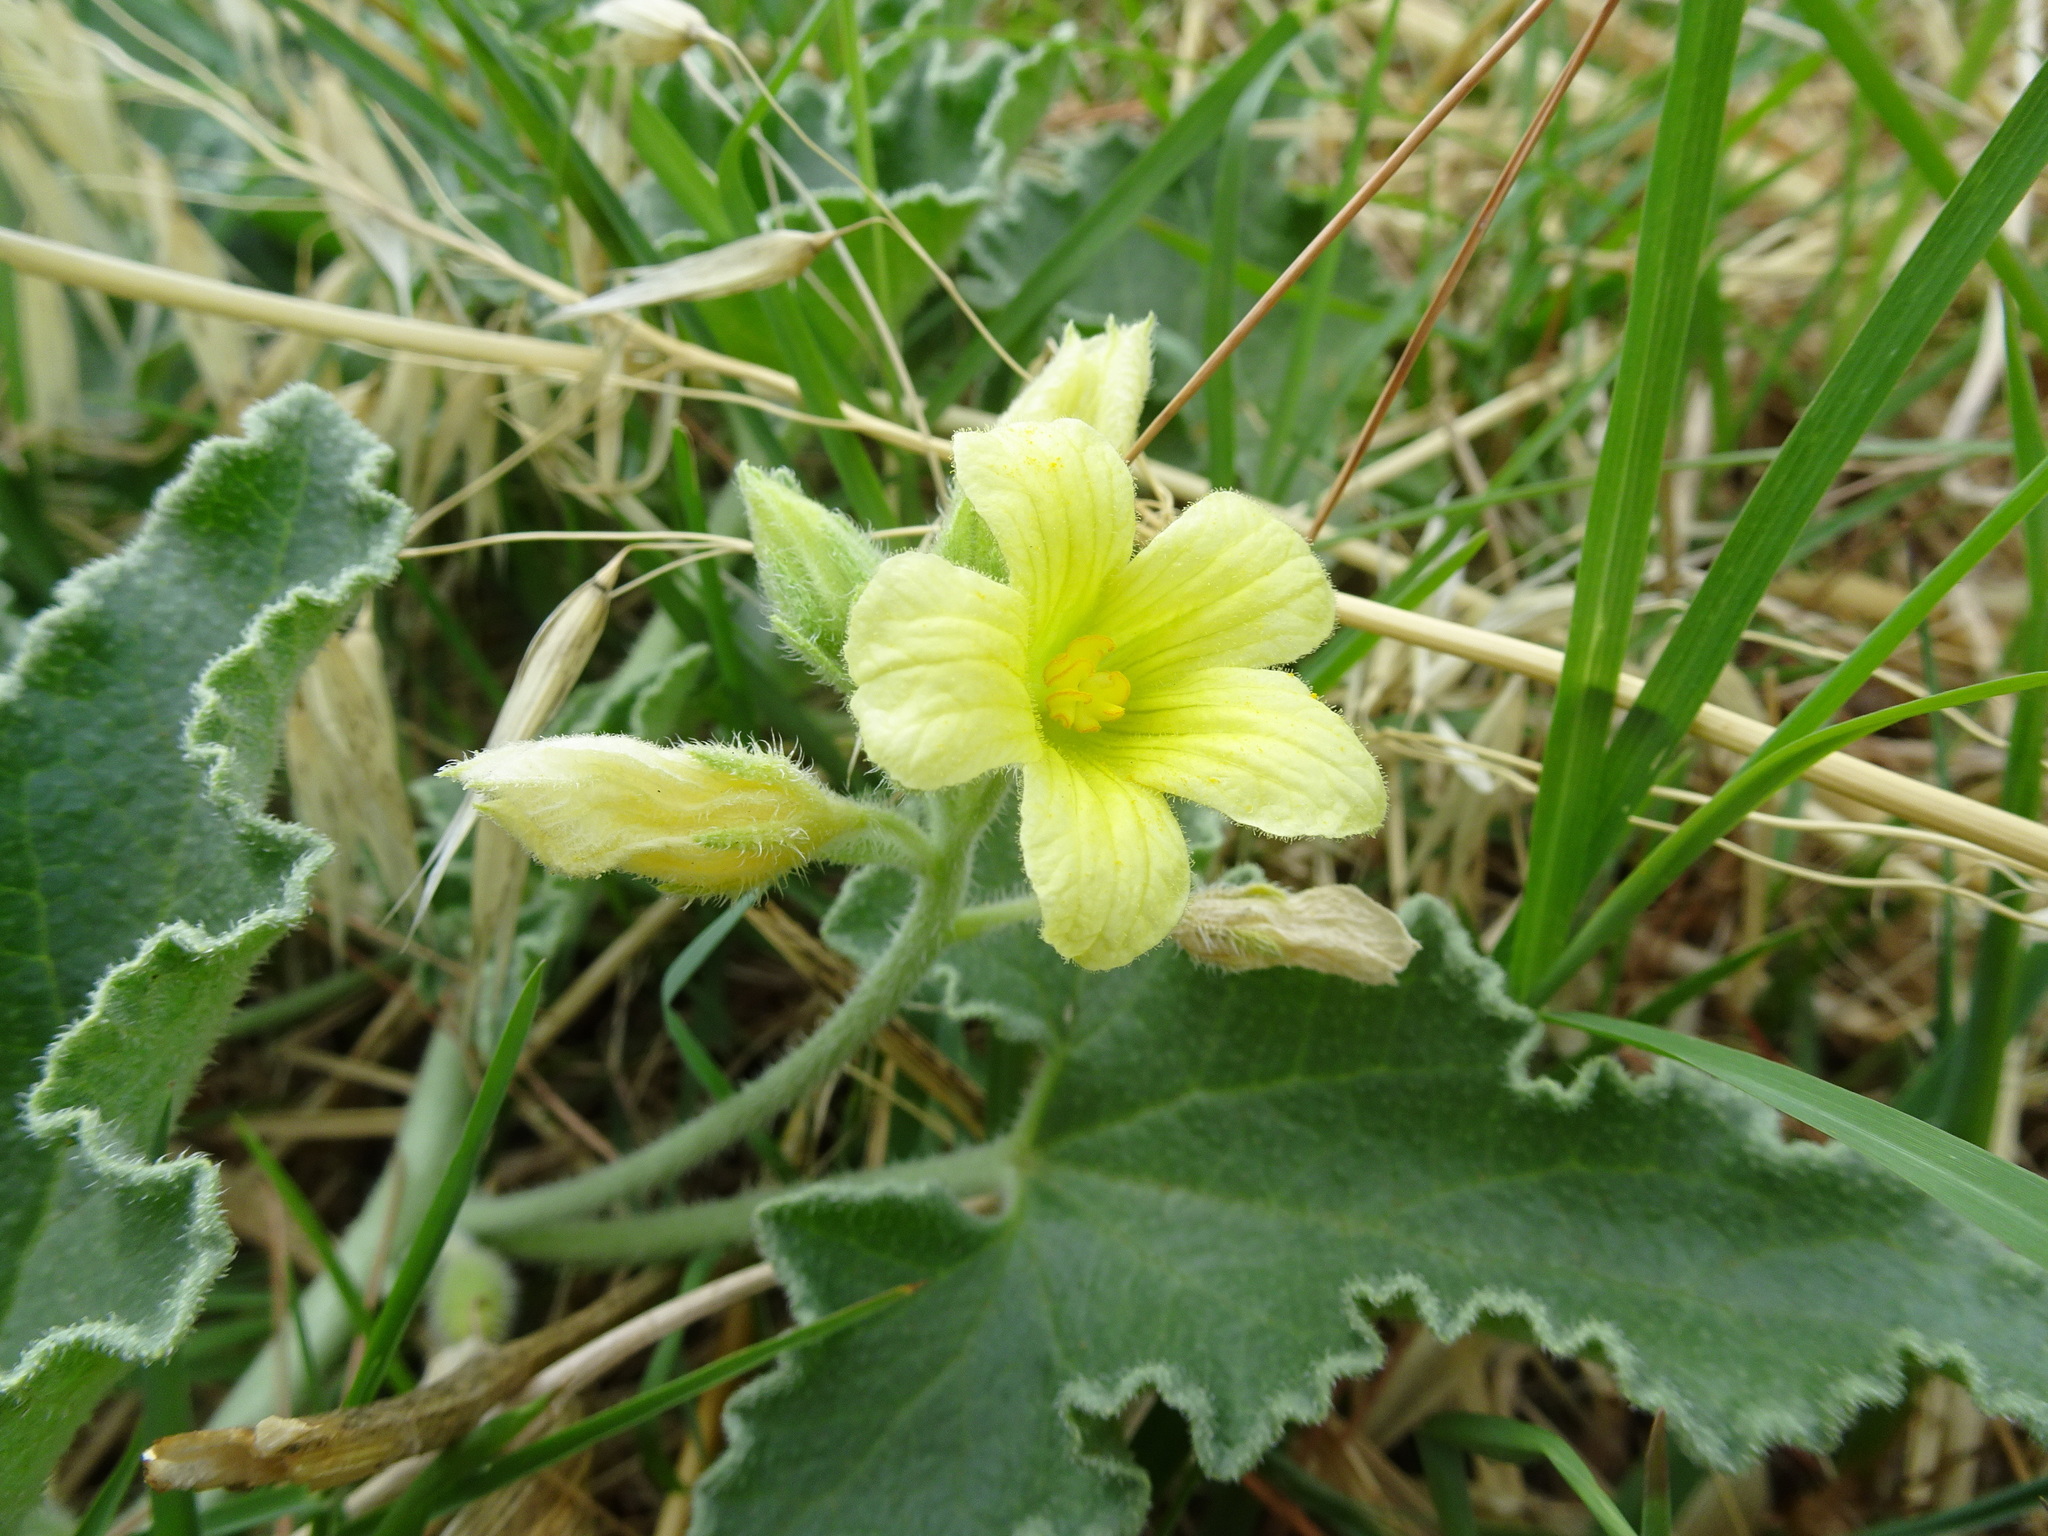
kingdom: Plantae
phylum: Tracheophyta
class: Magnoliopsida
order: Cucurbitales
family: Cucurbitaceae
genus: Ecballium
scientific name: Ecballium elaterium
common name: Squirting cucumber
